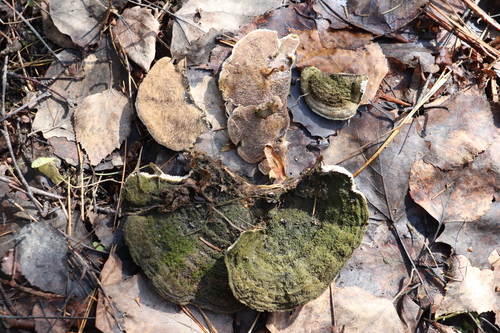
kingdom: Fungi
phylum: Basidiomycota
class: Agaricomycetes
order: Polyporales
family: Cerrenaceae
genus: Cerrena
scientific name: Cerrena unicolor
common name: Mossy maze polypore
